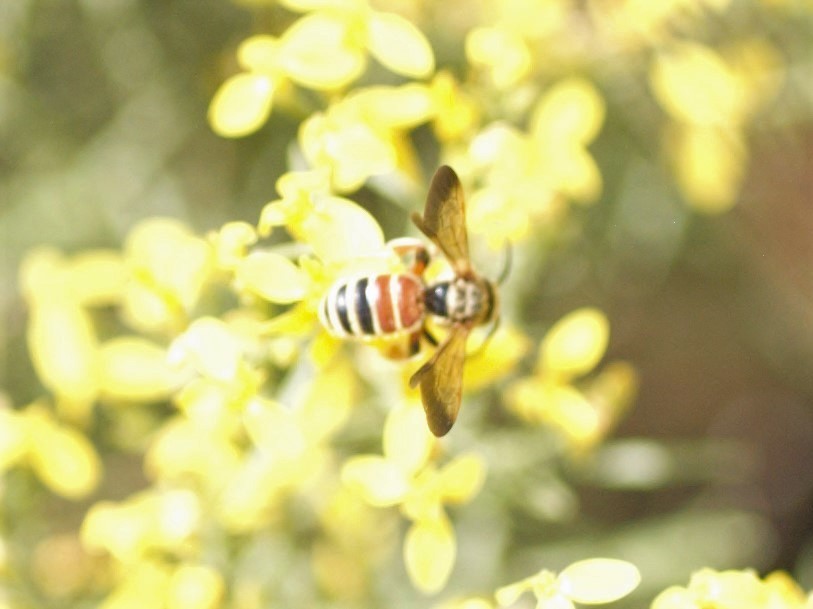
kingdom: Animalia
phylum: Arthropoda
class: Insecta
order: Hymenoptera
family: Halictidae
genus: Dieunomia
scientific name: Dieunomia nevadensis
